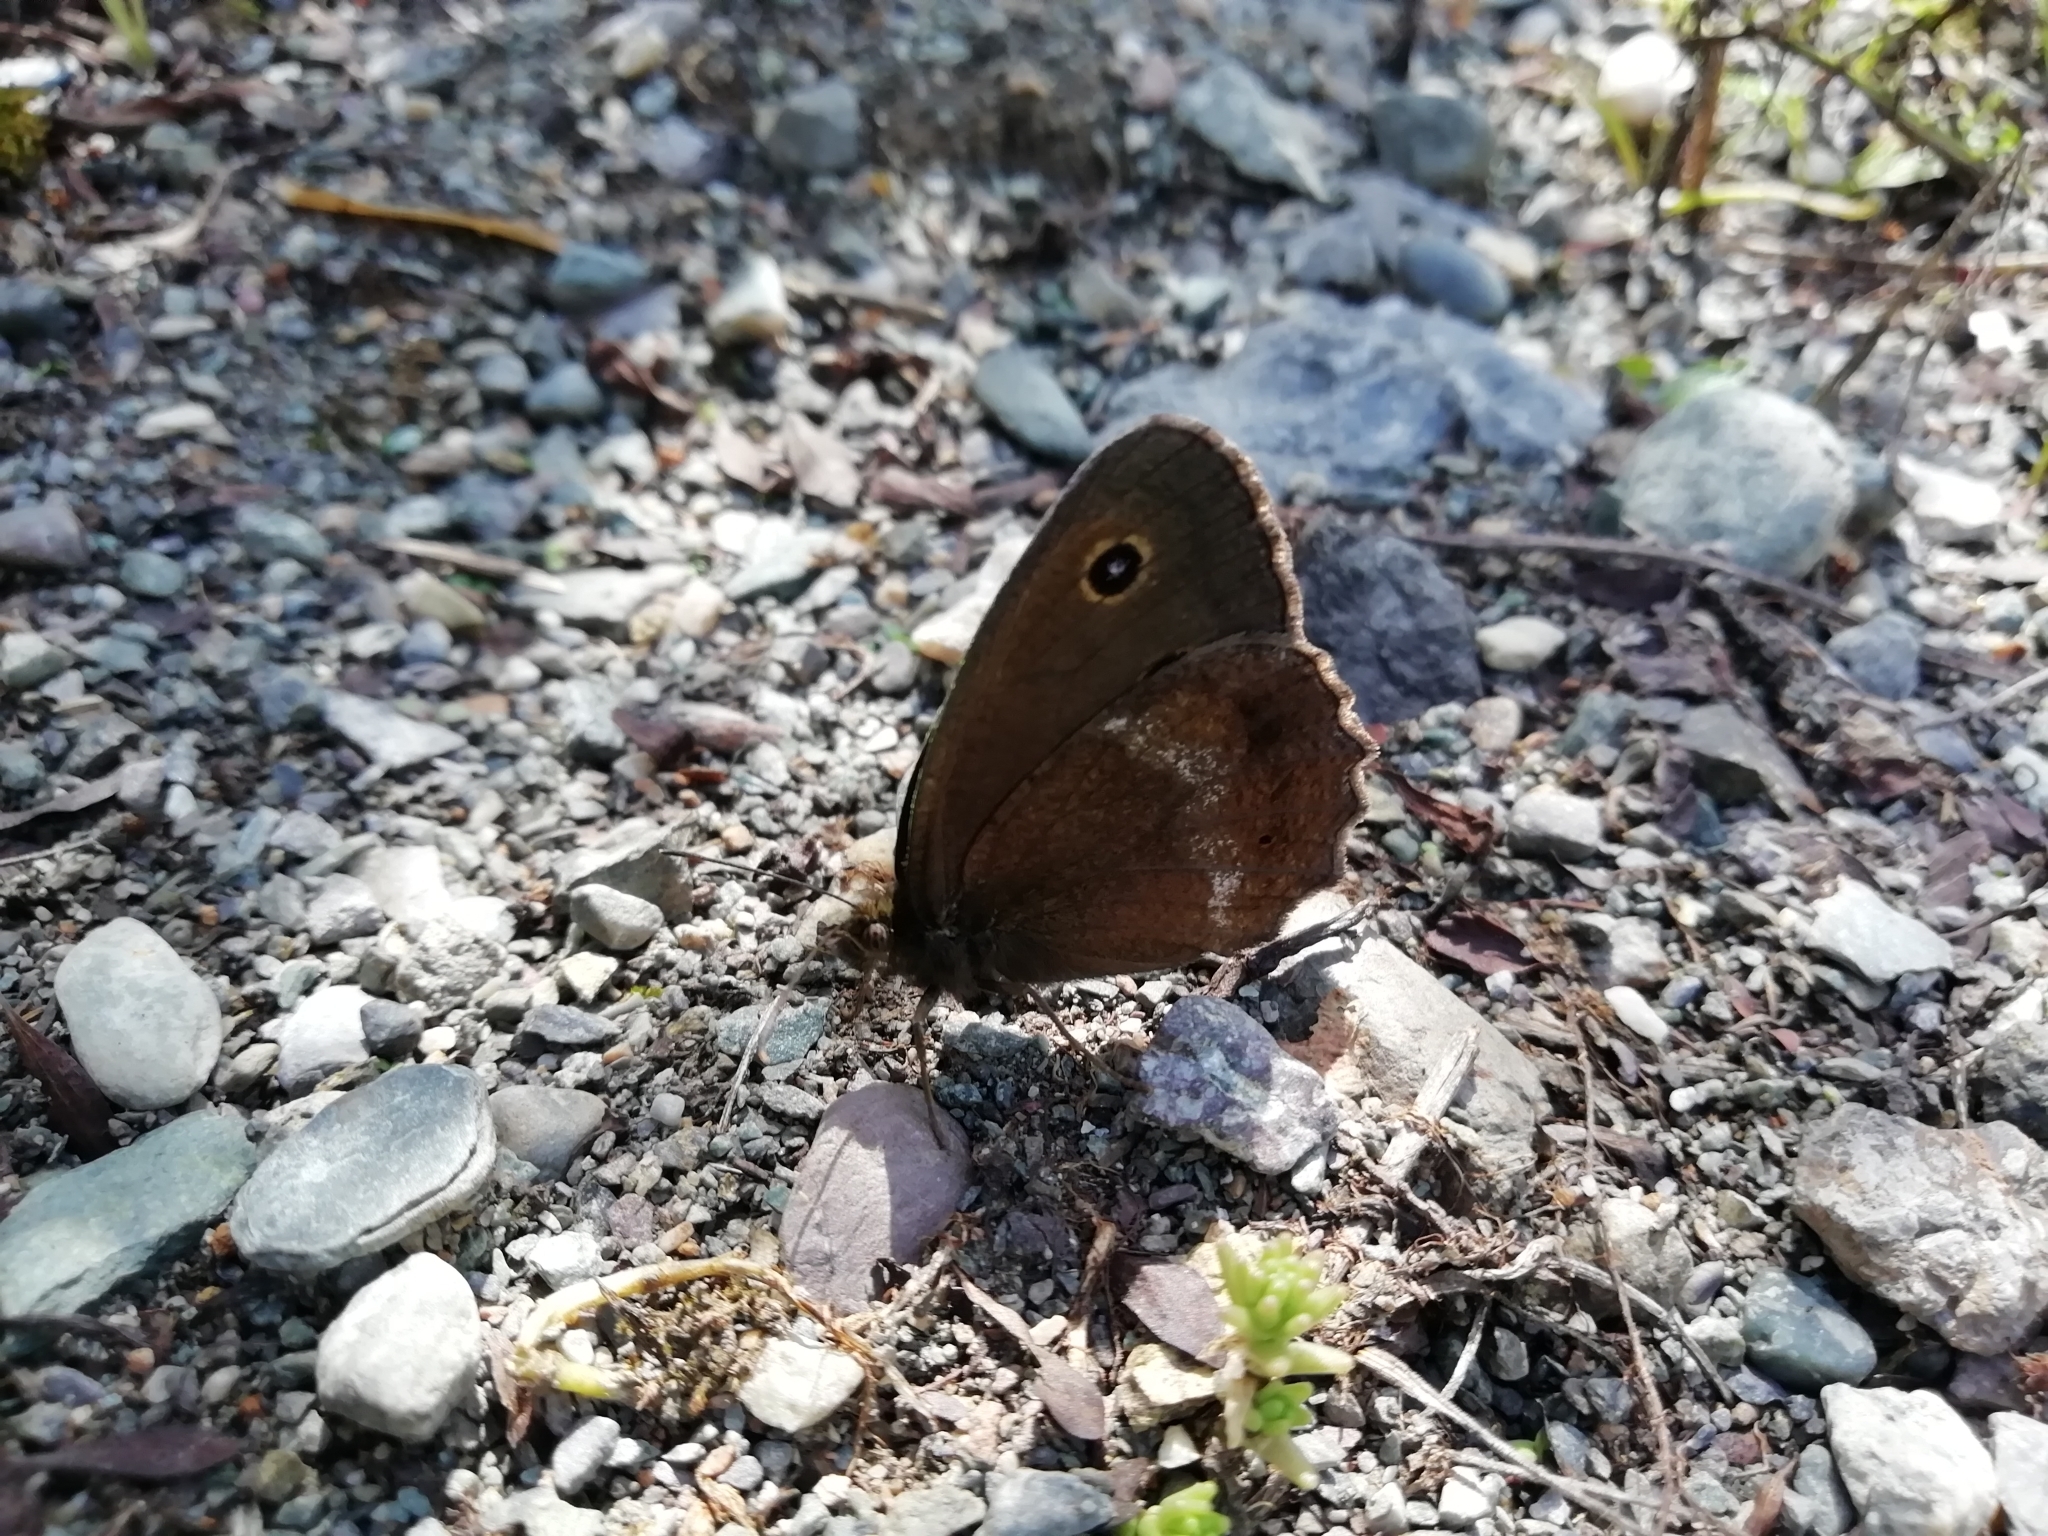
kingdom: Animalia
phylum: Arthropoda
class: Insecta
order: Lepidoptera
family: Nymphalidae
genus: Minois
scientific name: Minois dryas
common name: Dryad
